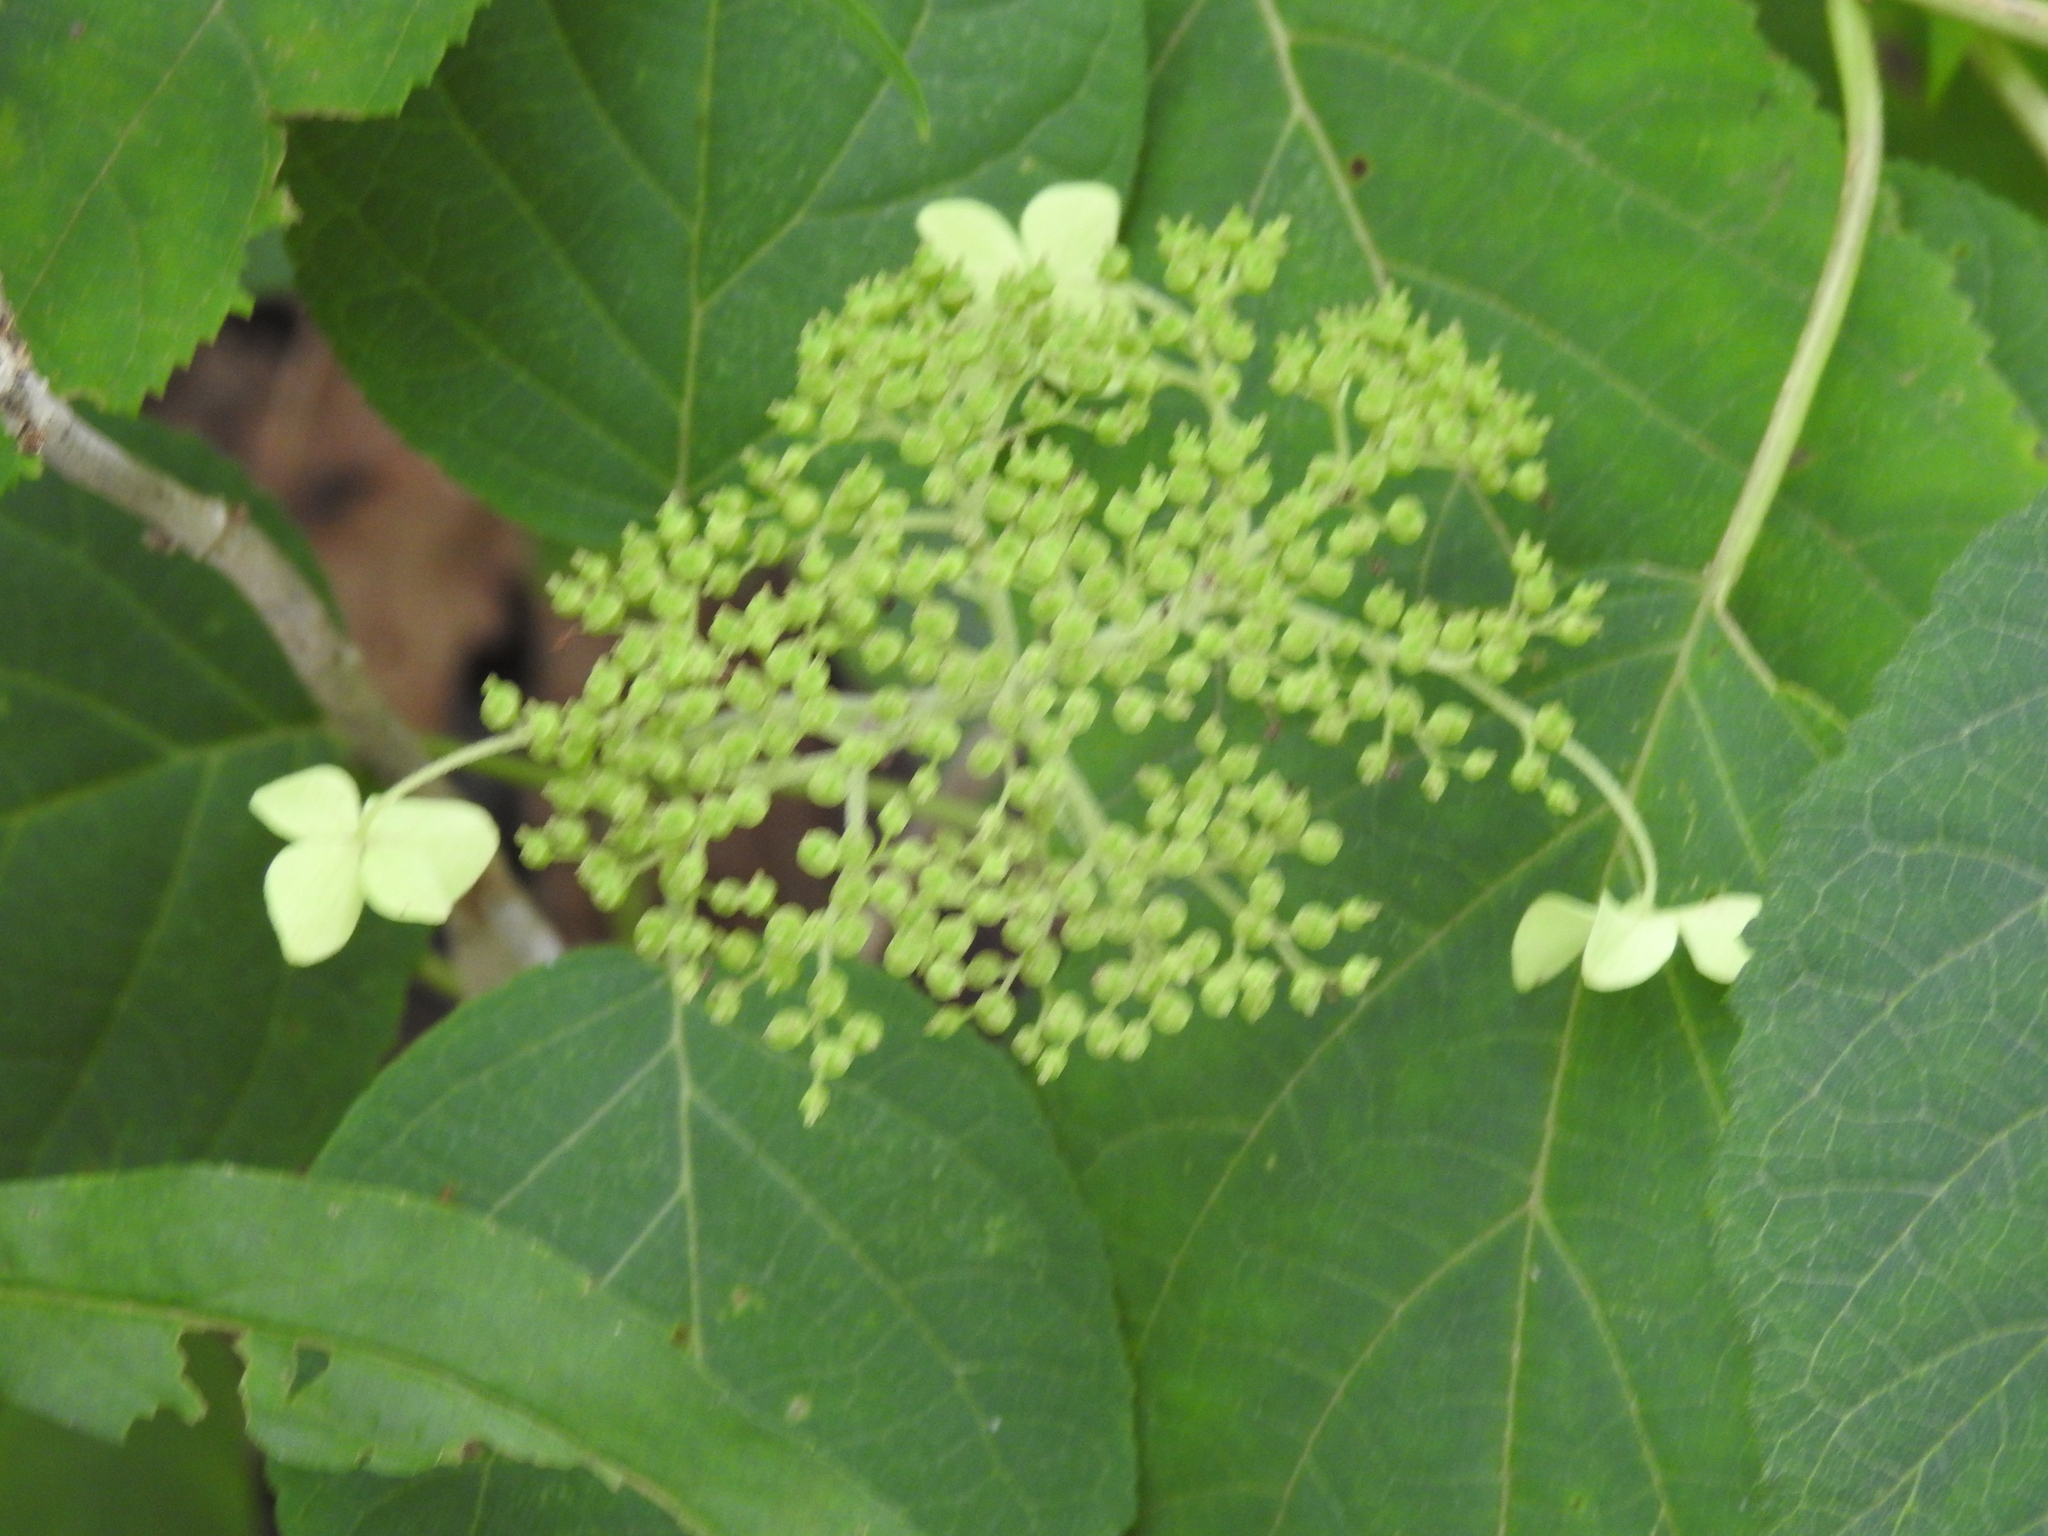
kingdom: Plantae
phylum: Tracheophyta
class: Magnoliopsida
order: Cornales
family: Hydrangeaceae
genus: Hydrangea
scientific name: Hydrangea arborescens
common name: Sevenbark
